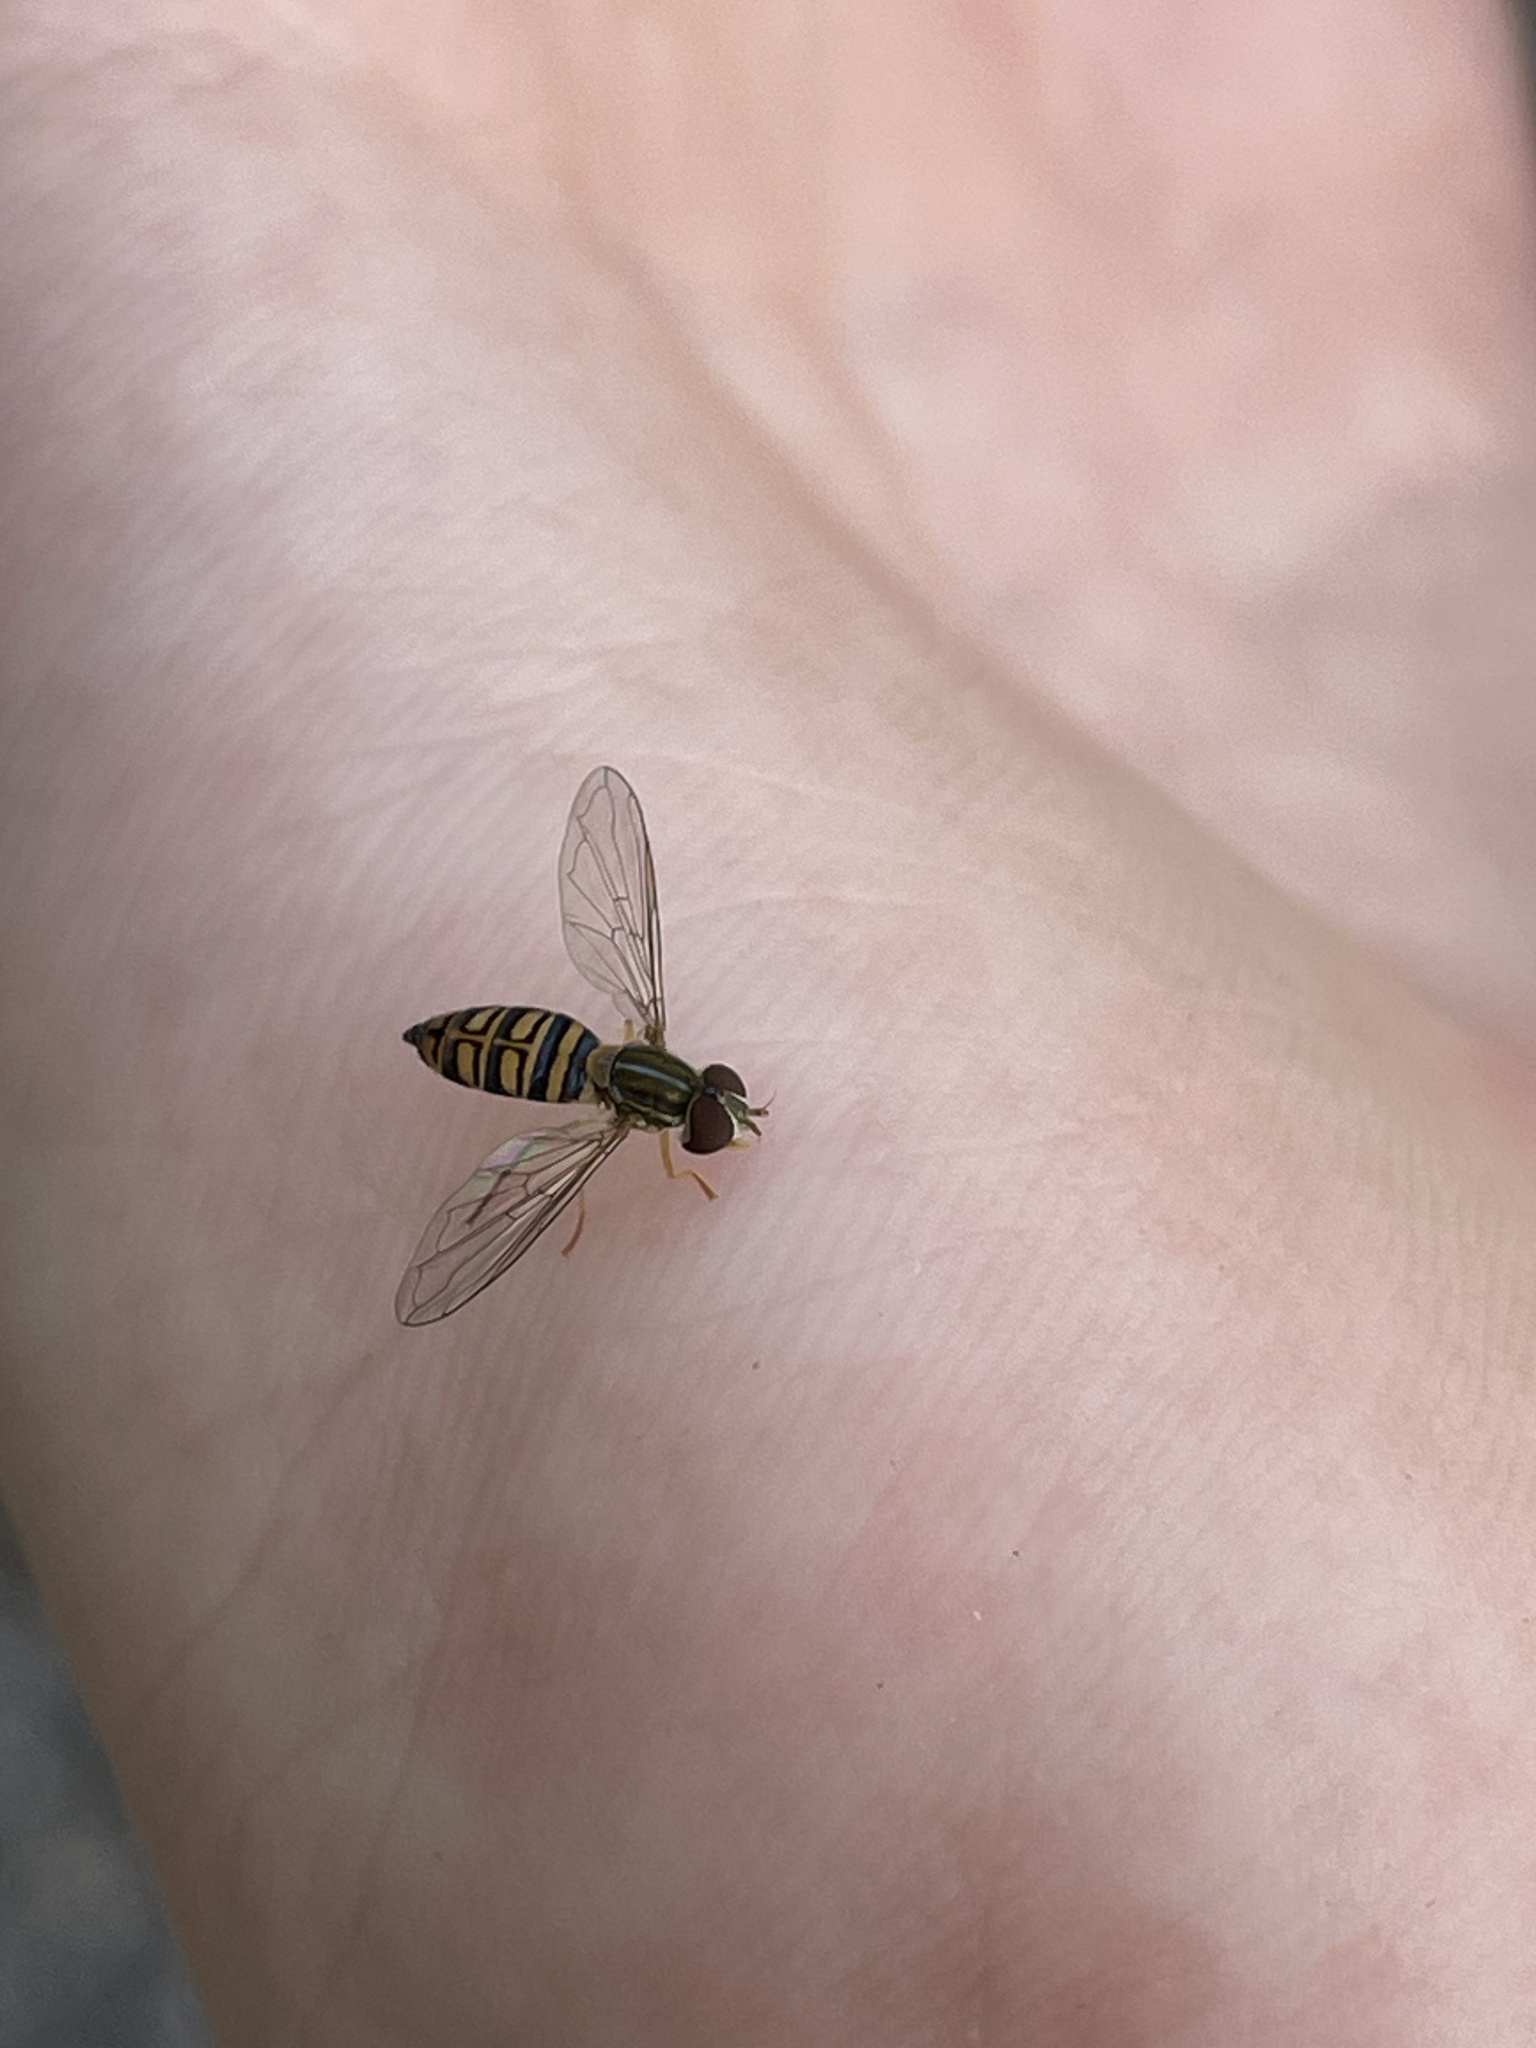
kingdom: Animalia
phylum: Arthropoda
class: Insecta
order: Diptera
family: Syrphidae
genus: Toxomerus
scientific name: Toxomerus politus
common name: Maize calligrapher
